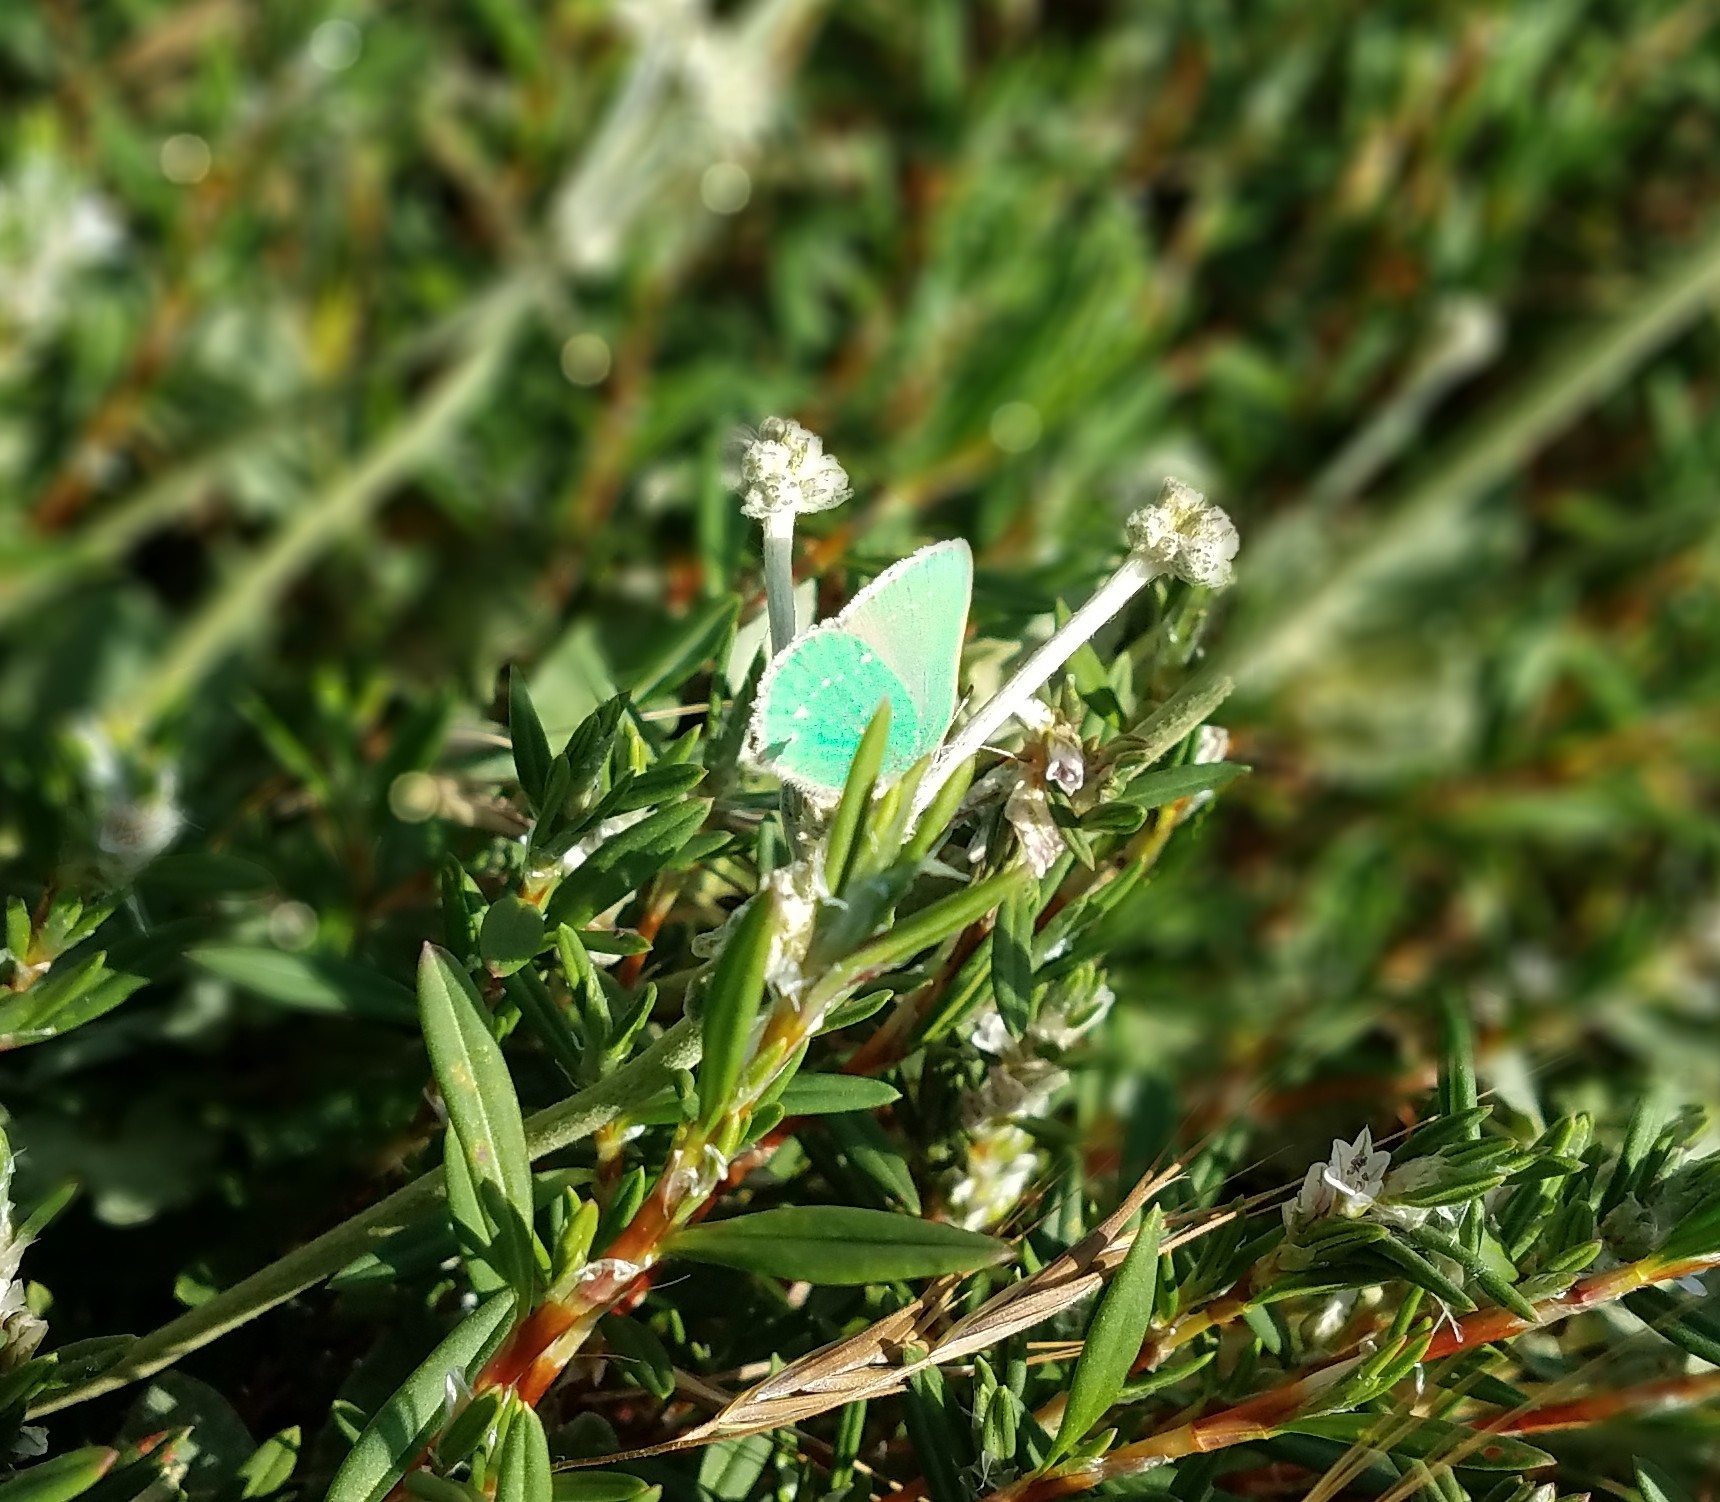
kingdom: Animalia
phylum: Arthropoda
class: Insecta
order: Lepidoptera
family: Lycaenidae
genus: Callophrys
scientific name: Callophrys viridis
